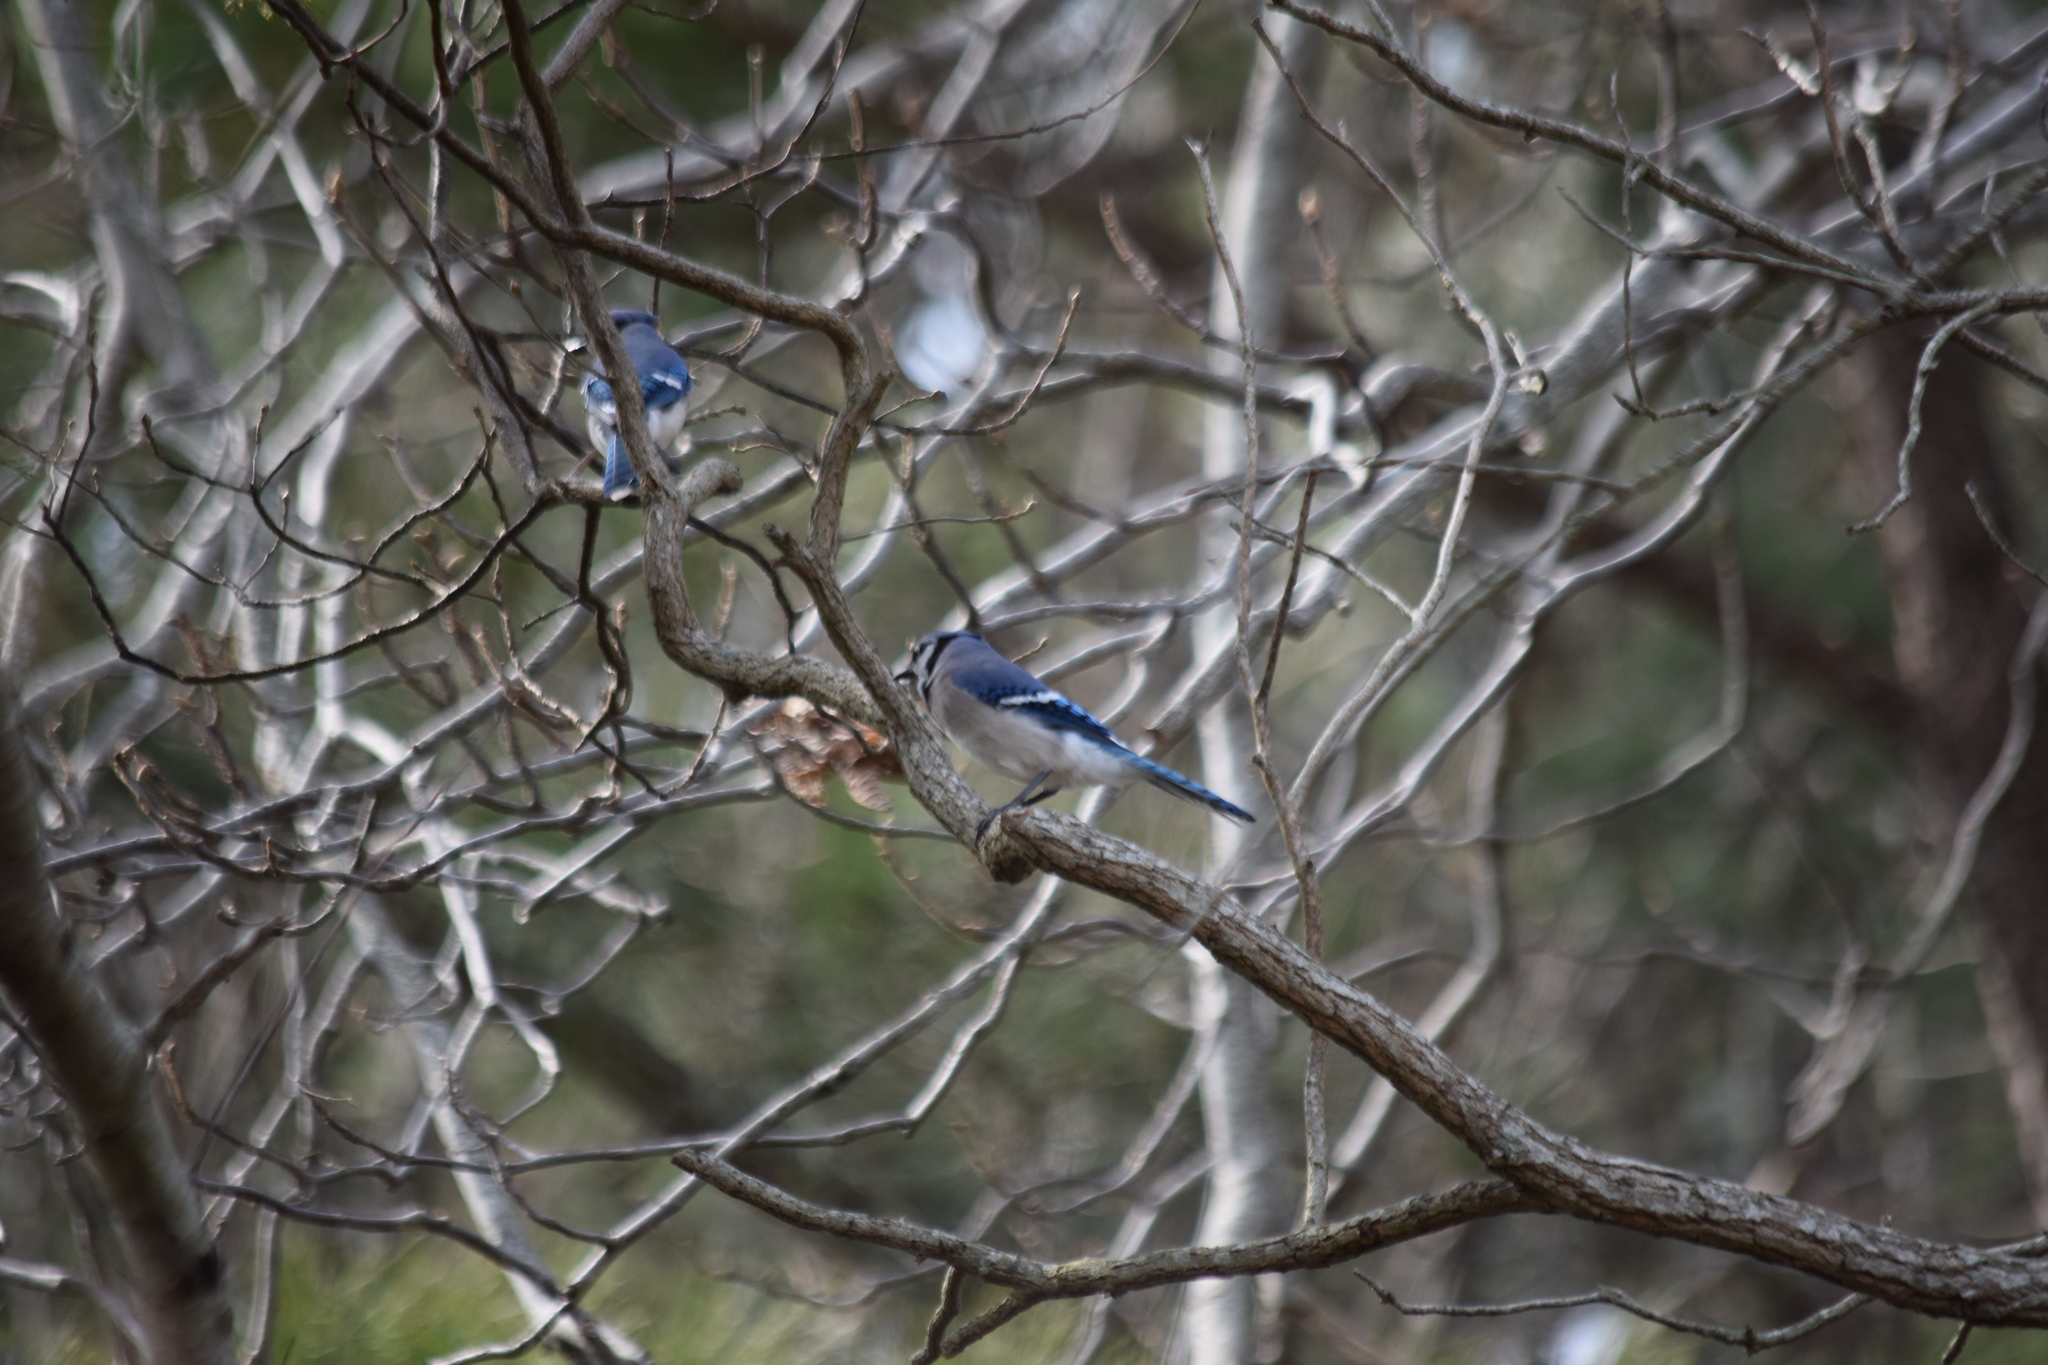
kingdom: Animalia
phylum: Chordata
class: Aves
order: Passeriformes
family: Corvidae
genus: Cyanocitta
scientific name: Cyanocitta cristata
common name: Blue jay
